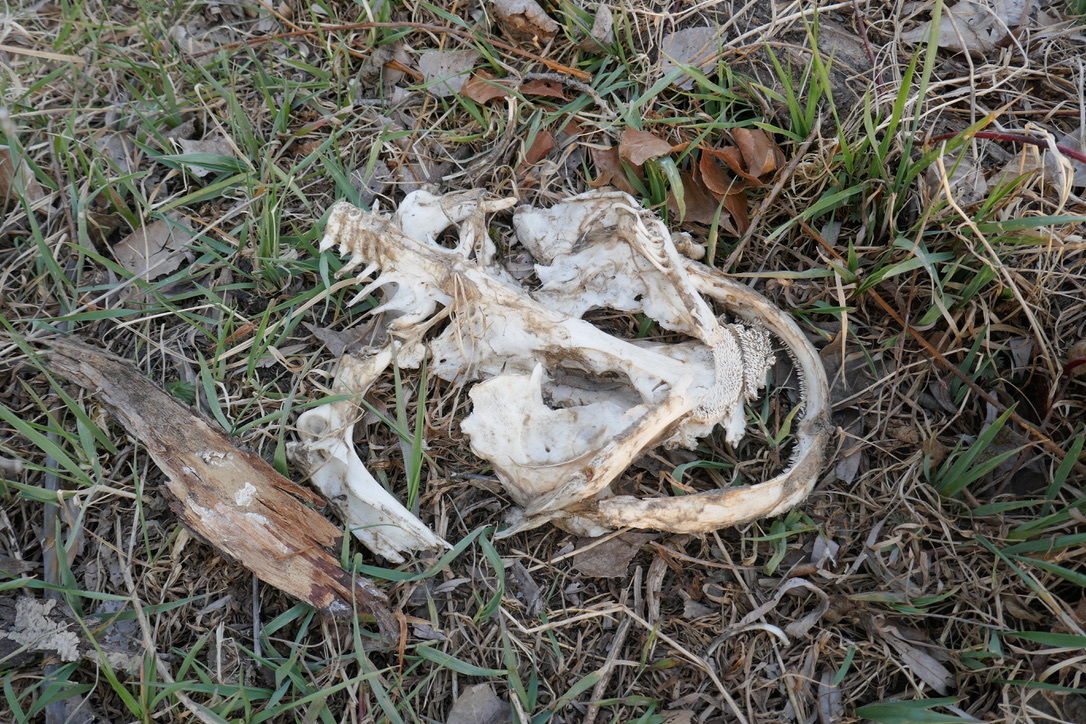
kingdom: Animalia
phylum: Chordata
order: Siluriformes
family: Siluridae
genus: Silurus
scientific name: Silurus glanis
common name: Wels
